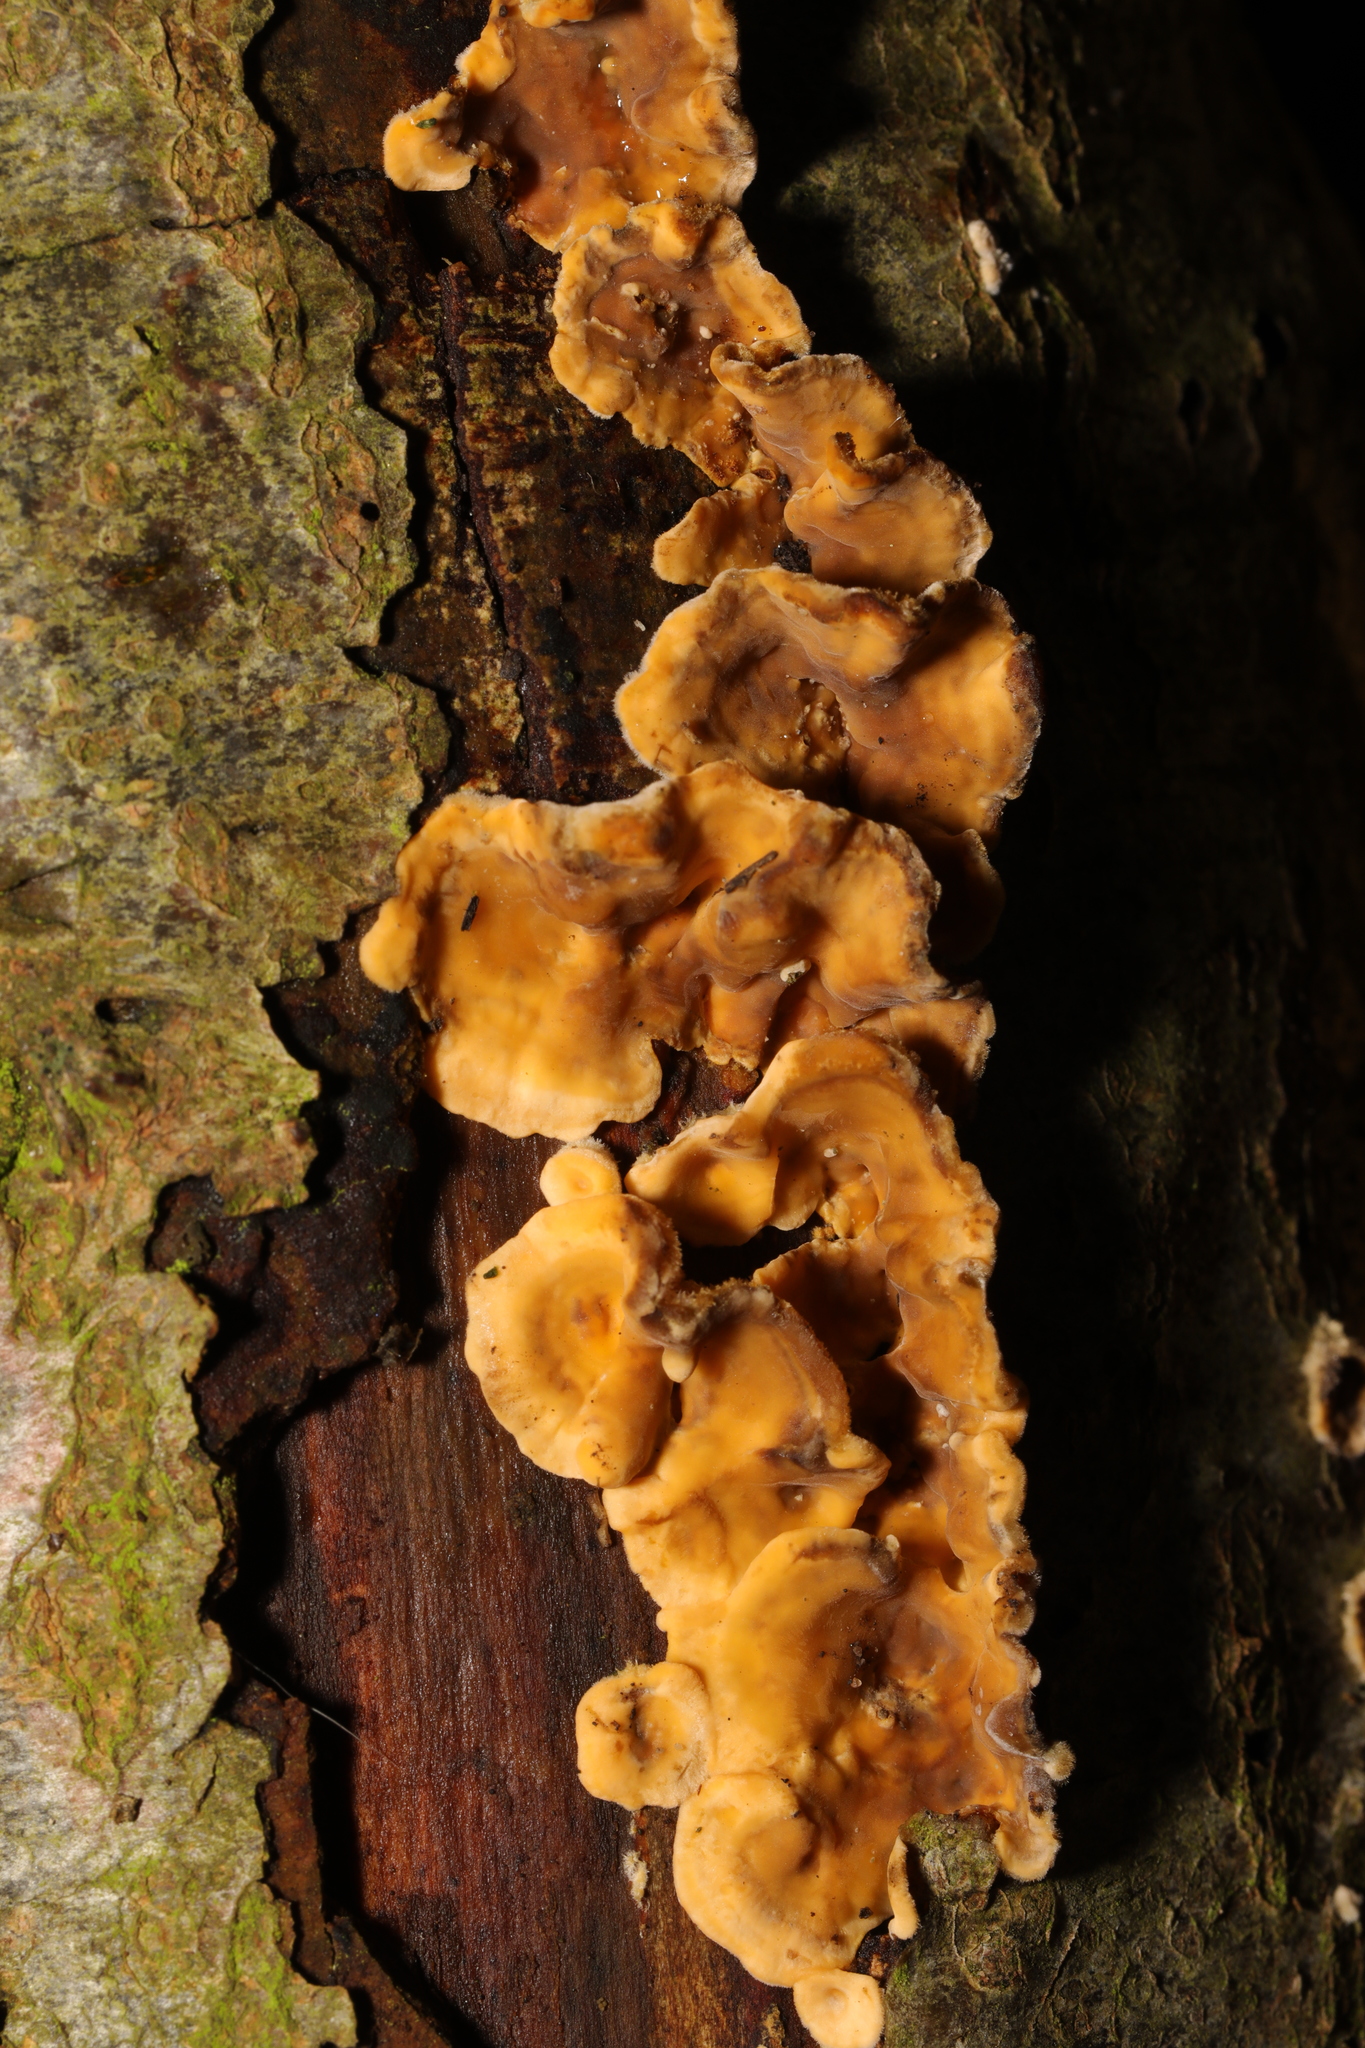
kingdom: Fungi
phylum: Basidiomycota
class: Agaricomycetes
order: Russulales
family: Stereaceae
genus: Stereum
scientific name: Stereum hirsutum
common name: Hairy curtain crust
